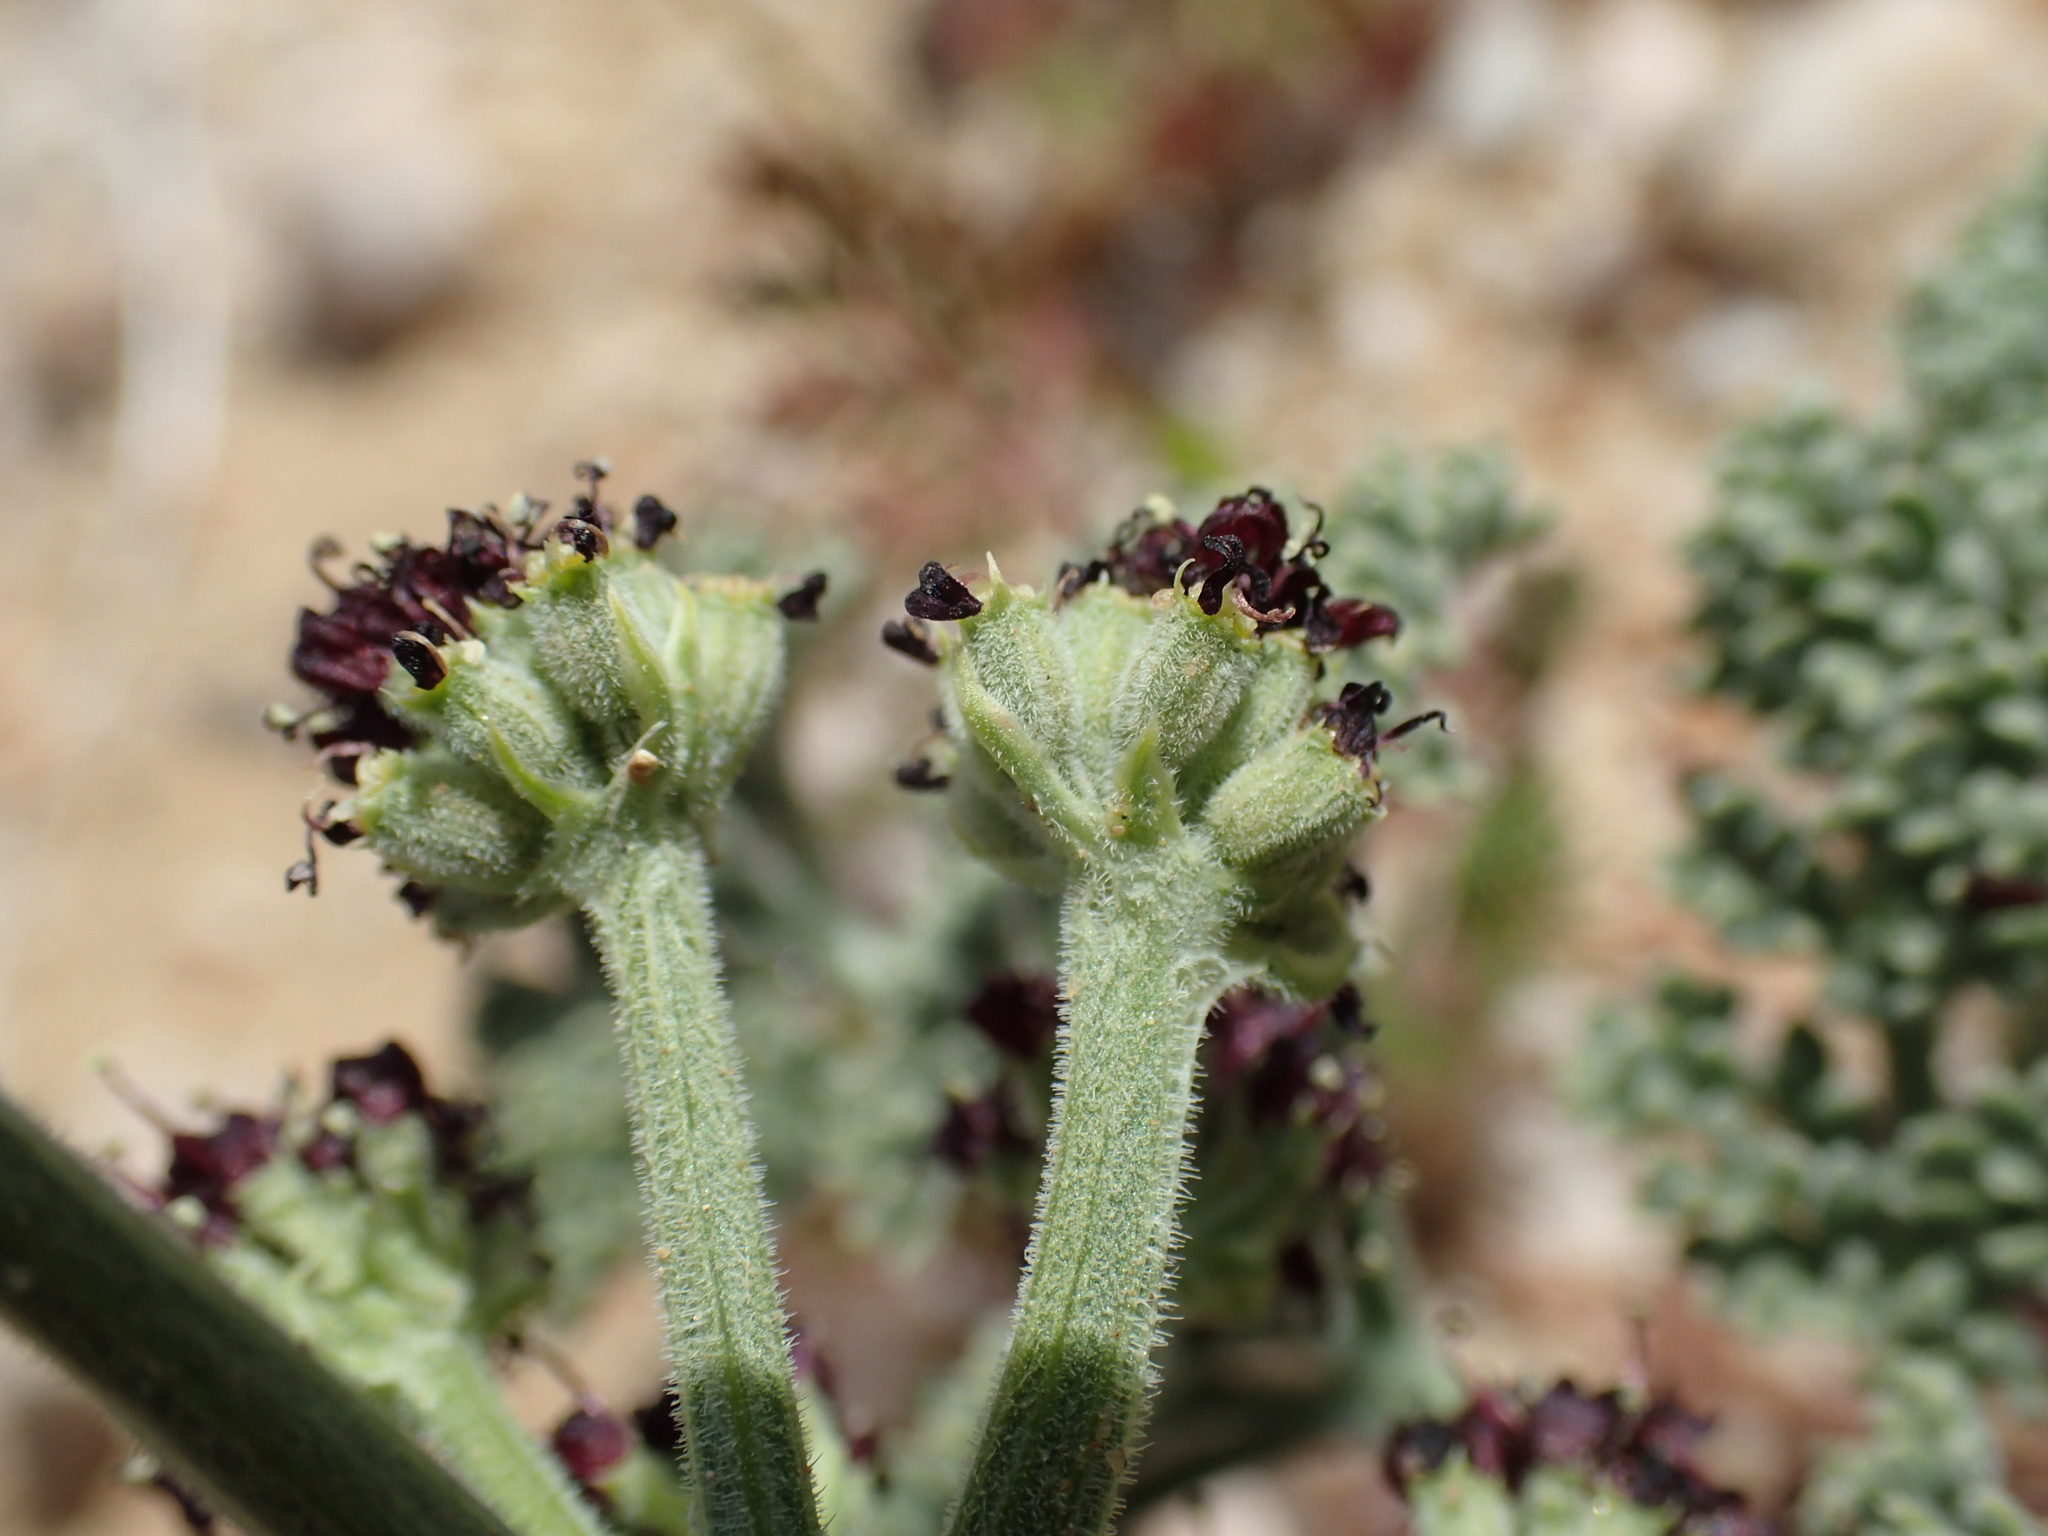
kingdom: Plantae
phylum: Tracheophyta
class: Magnoliopsida
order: Apiales
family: Apiaceae
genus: Lomatium
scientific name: Lomatium mohavense
